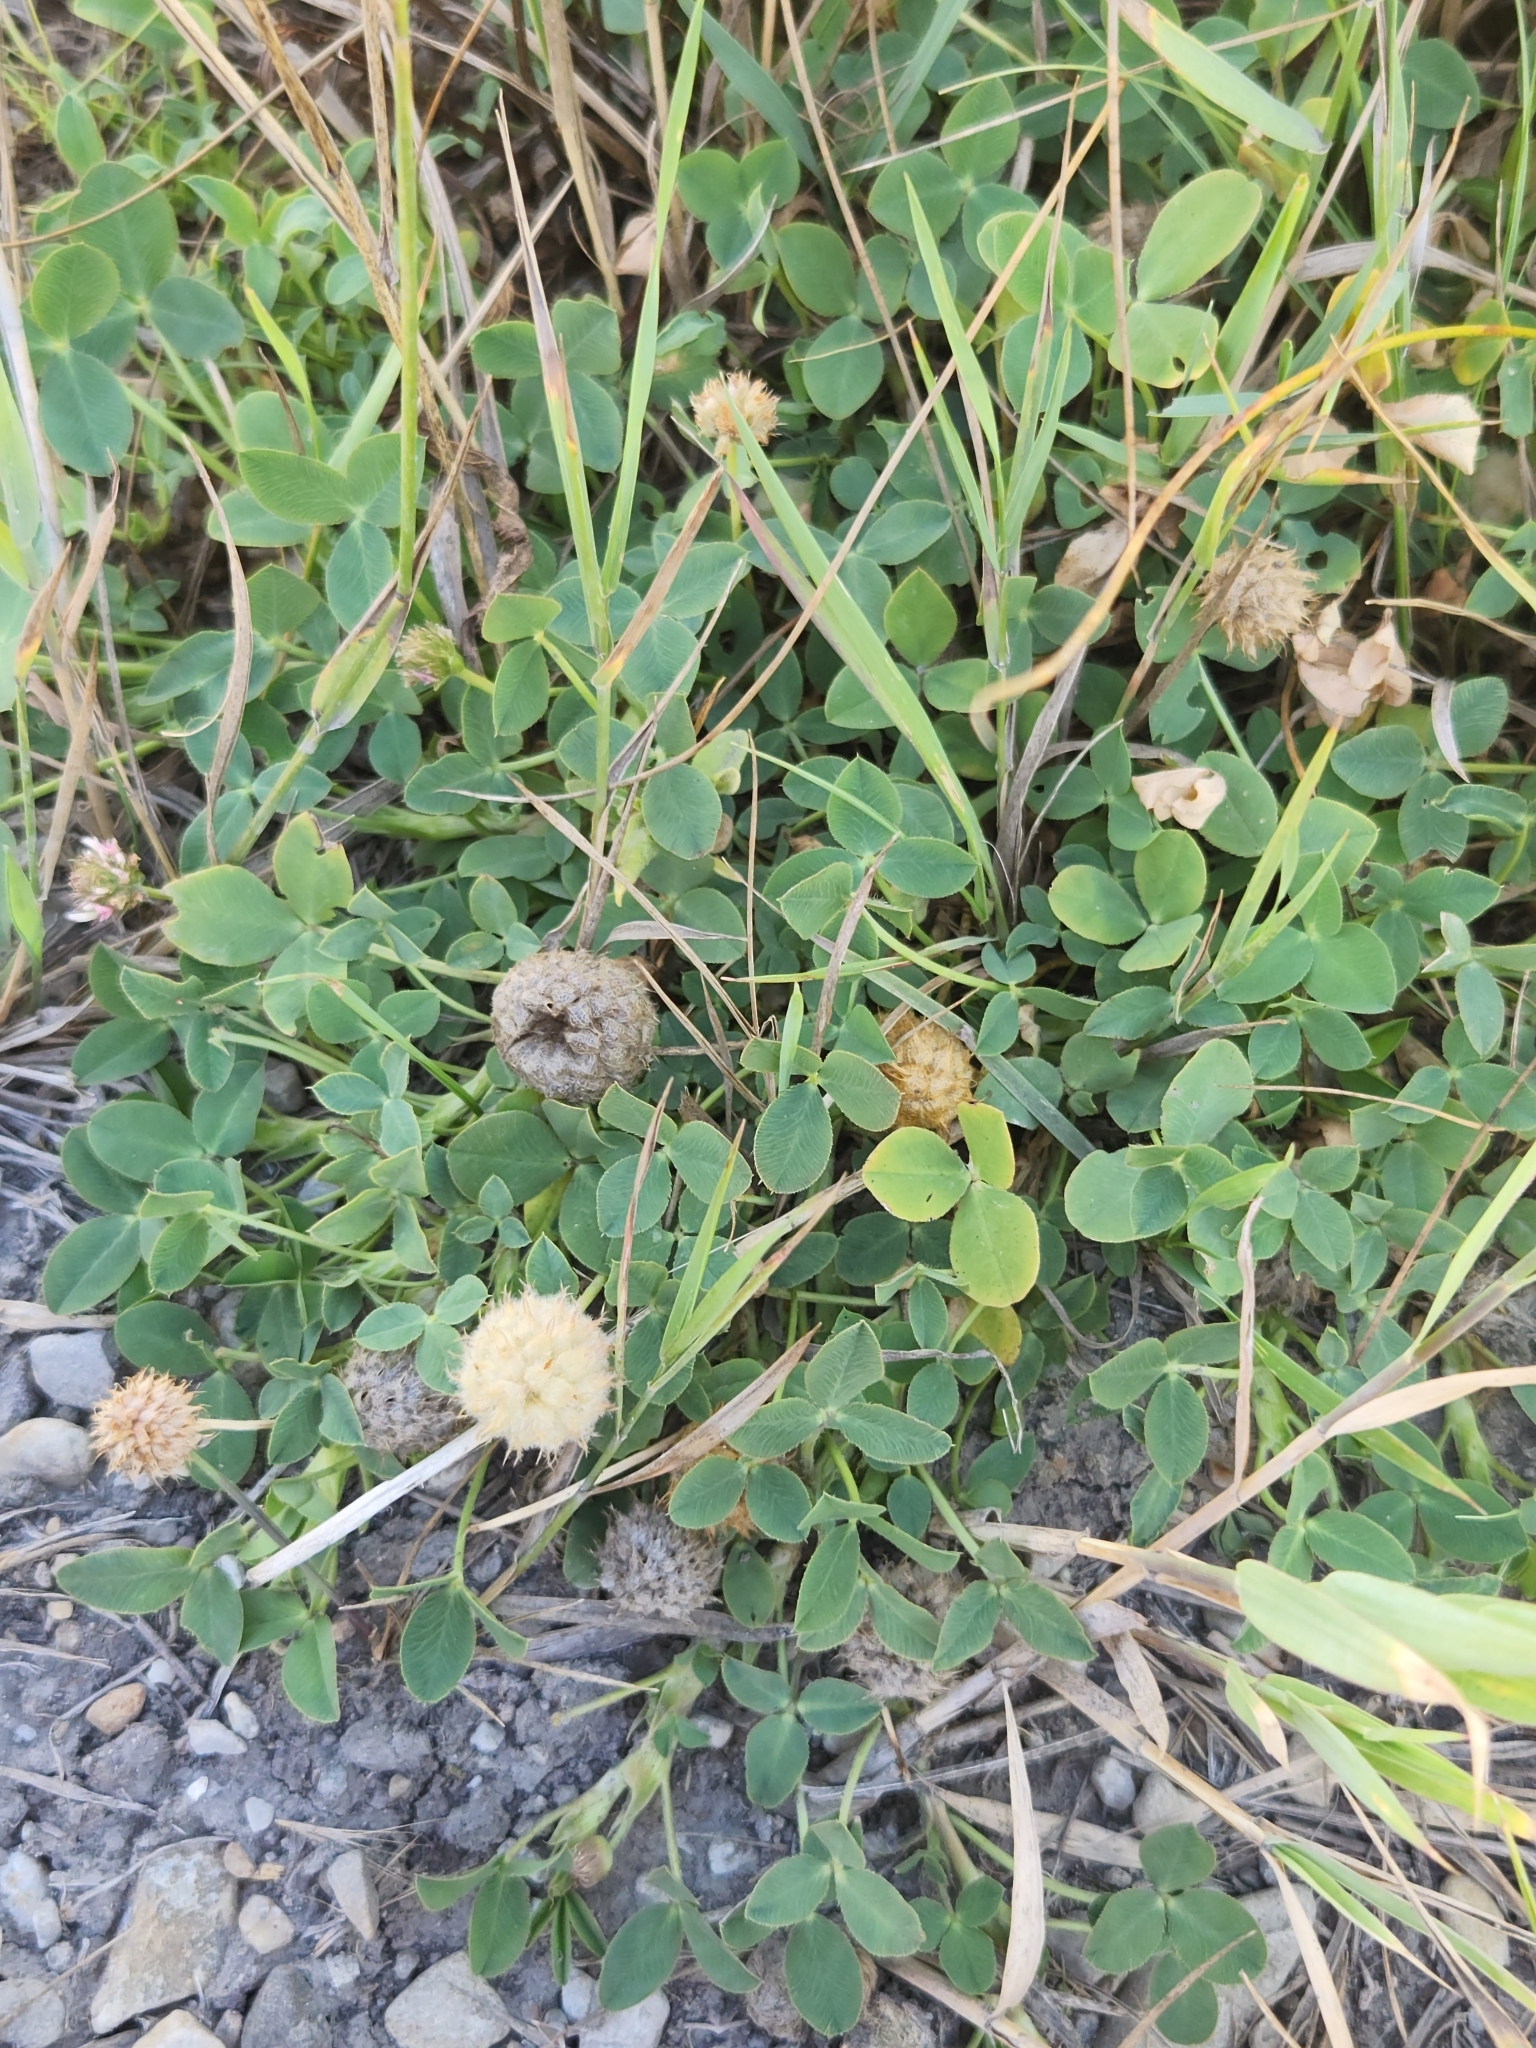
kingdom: Plantae
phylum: Tracheophyta
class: Magnoliopsida
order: Fabales
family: Fabaceae
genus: Trifolium
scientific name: Trifolium fragiferum
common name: Strawberry clover
